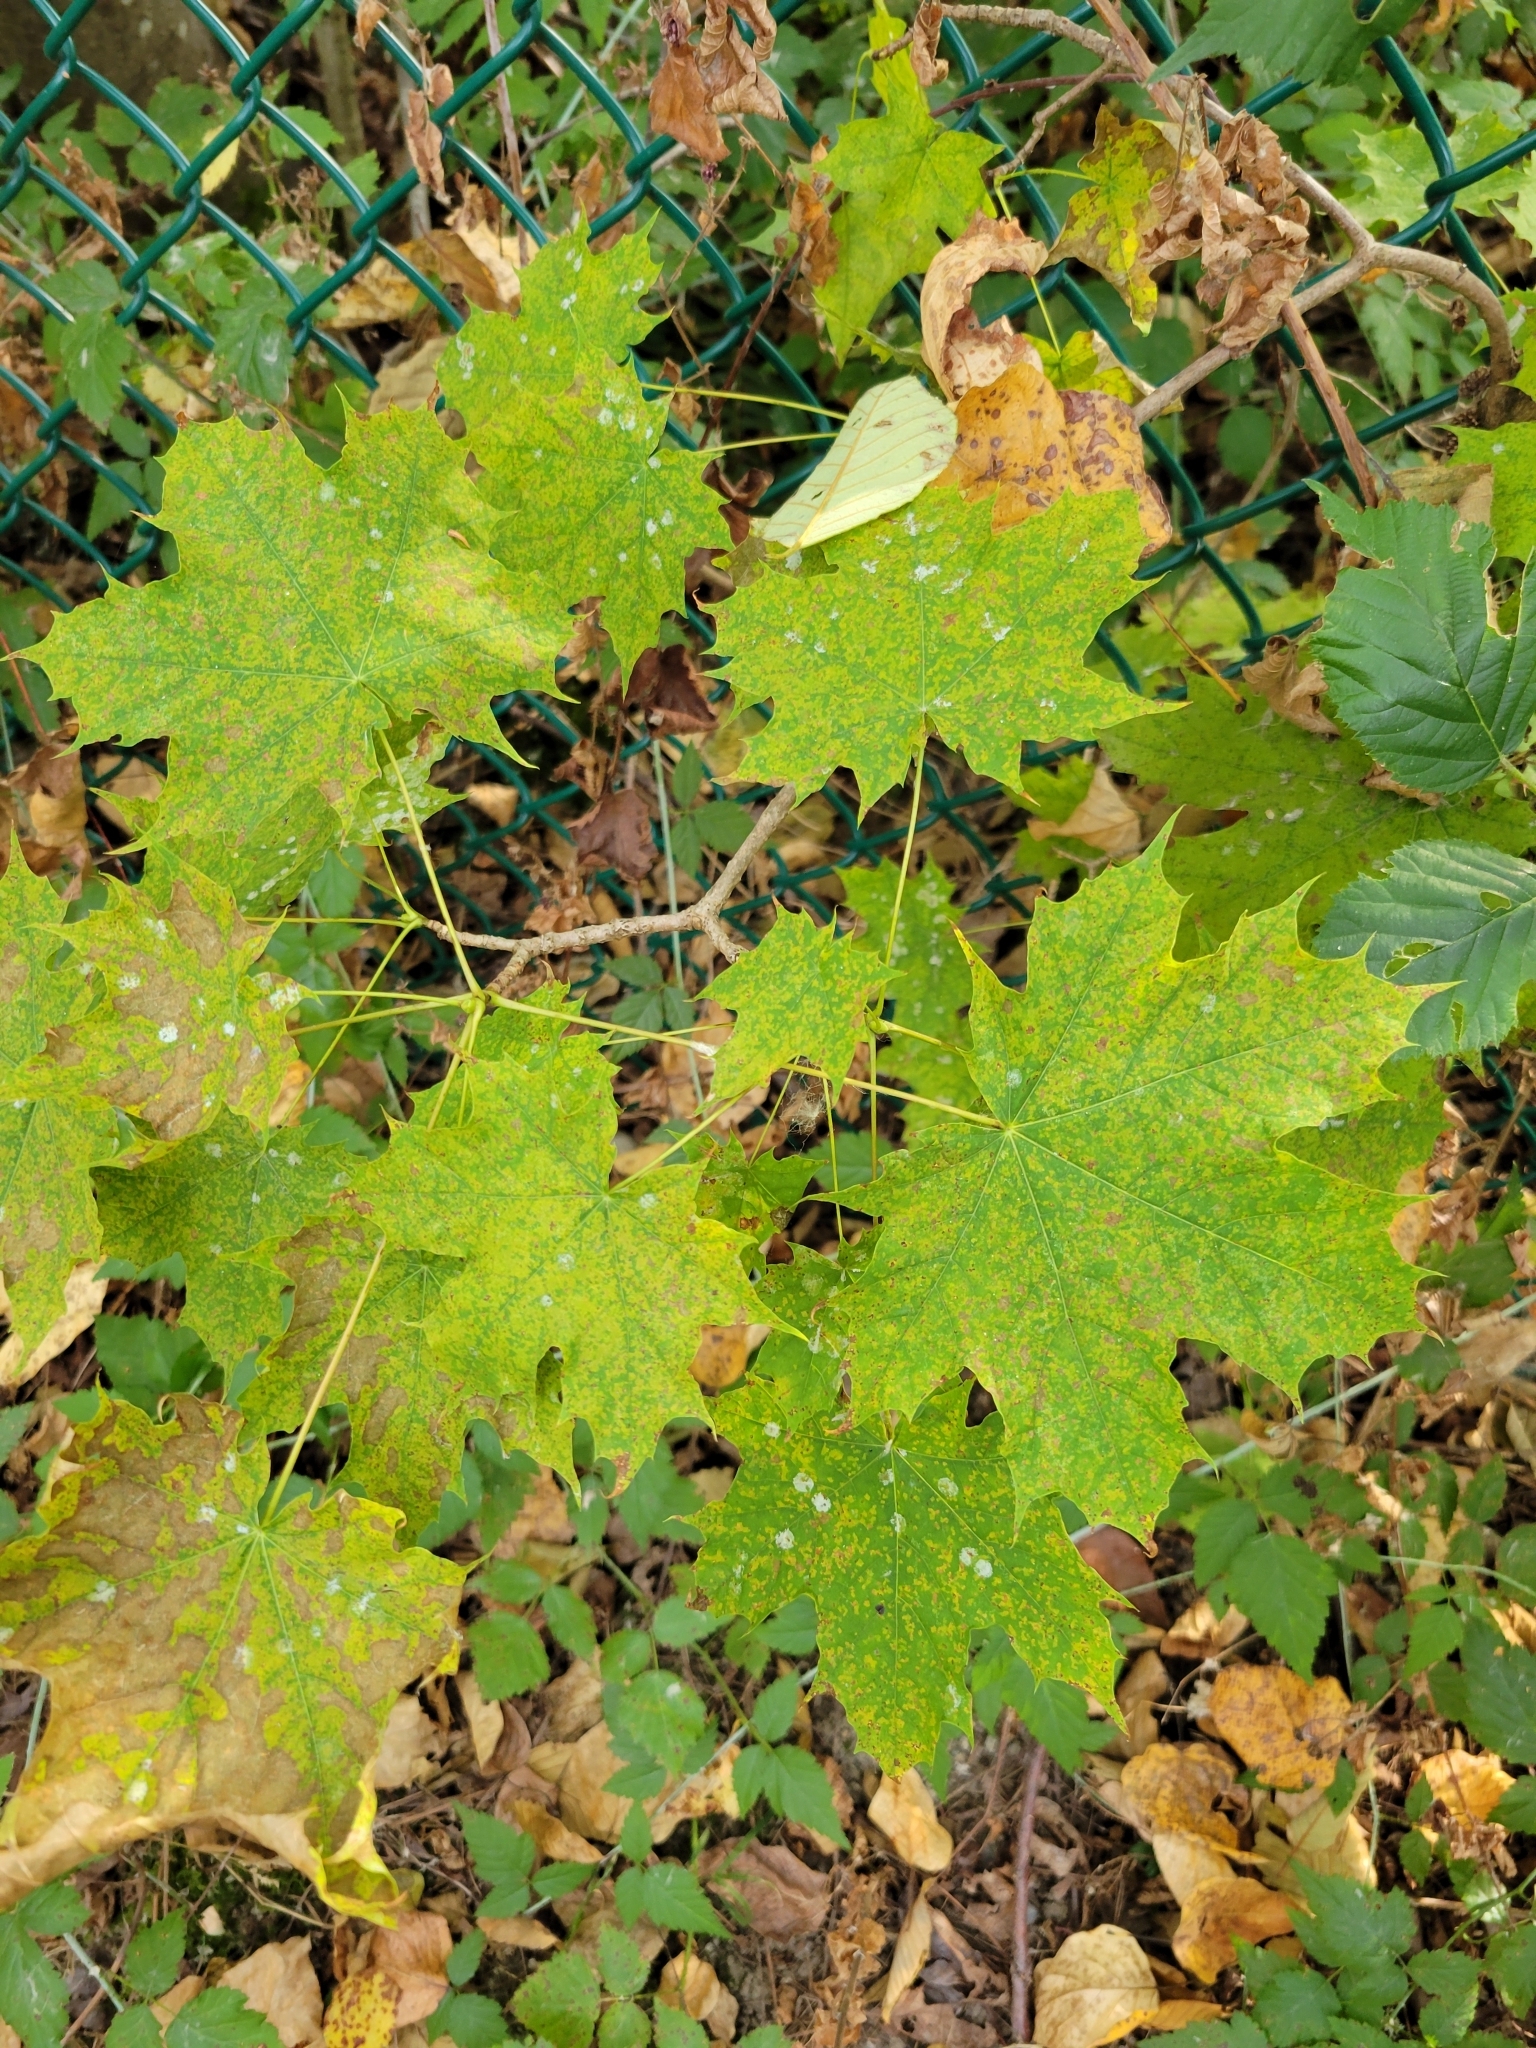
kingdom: Plantae
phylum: Tracheophyta
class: Magnoliopsida
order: Sapindales
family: Sapindaceae
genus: Acer
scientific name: Acer platanoides
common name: Norway maple
